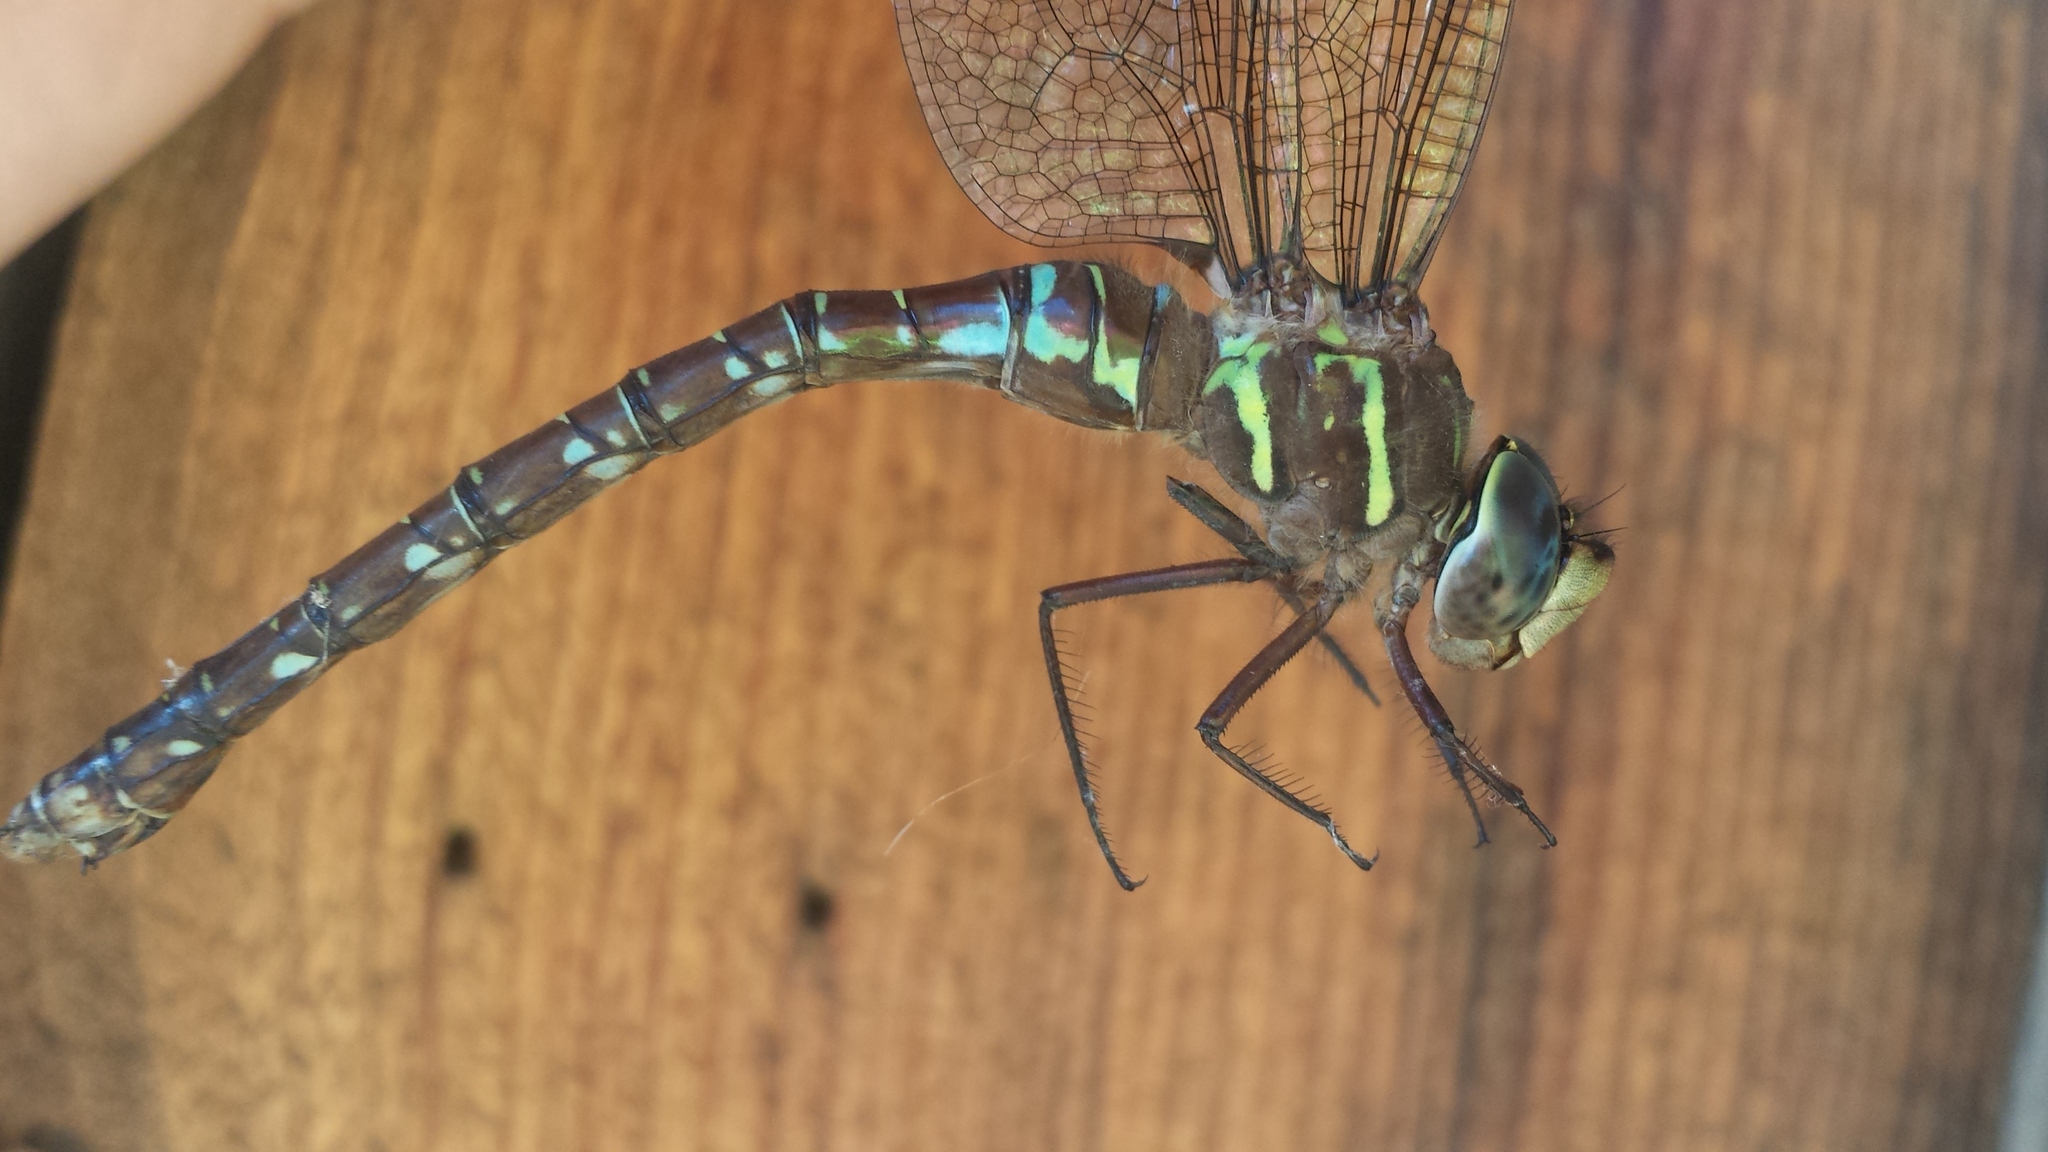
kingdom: Animalia
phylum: Arthropoda
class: Insecta
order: Odonata
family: Aeshnidae
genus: Aeshna
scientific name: Aeshna umbrosa
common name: Shadow darner
